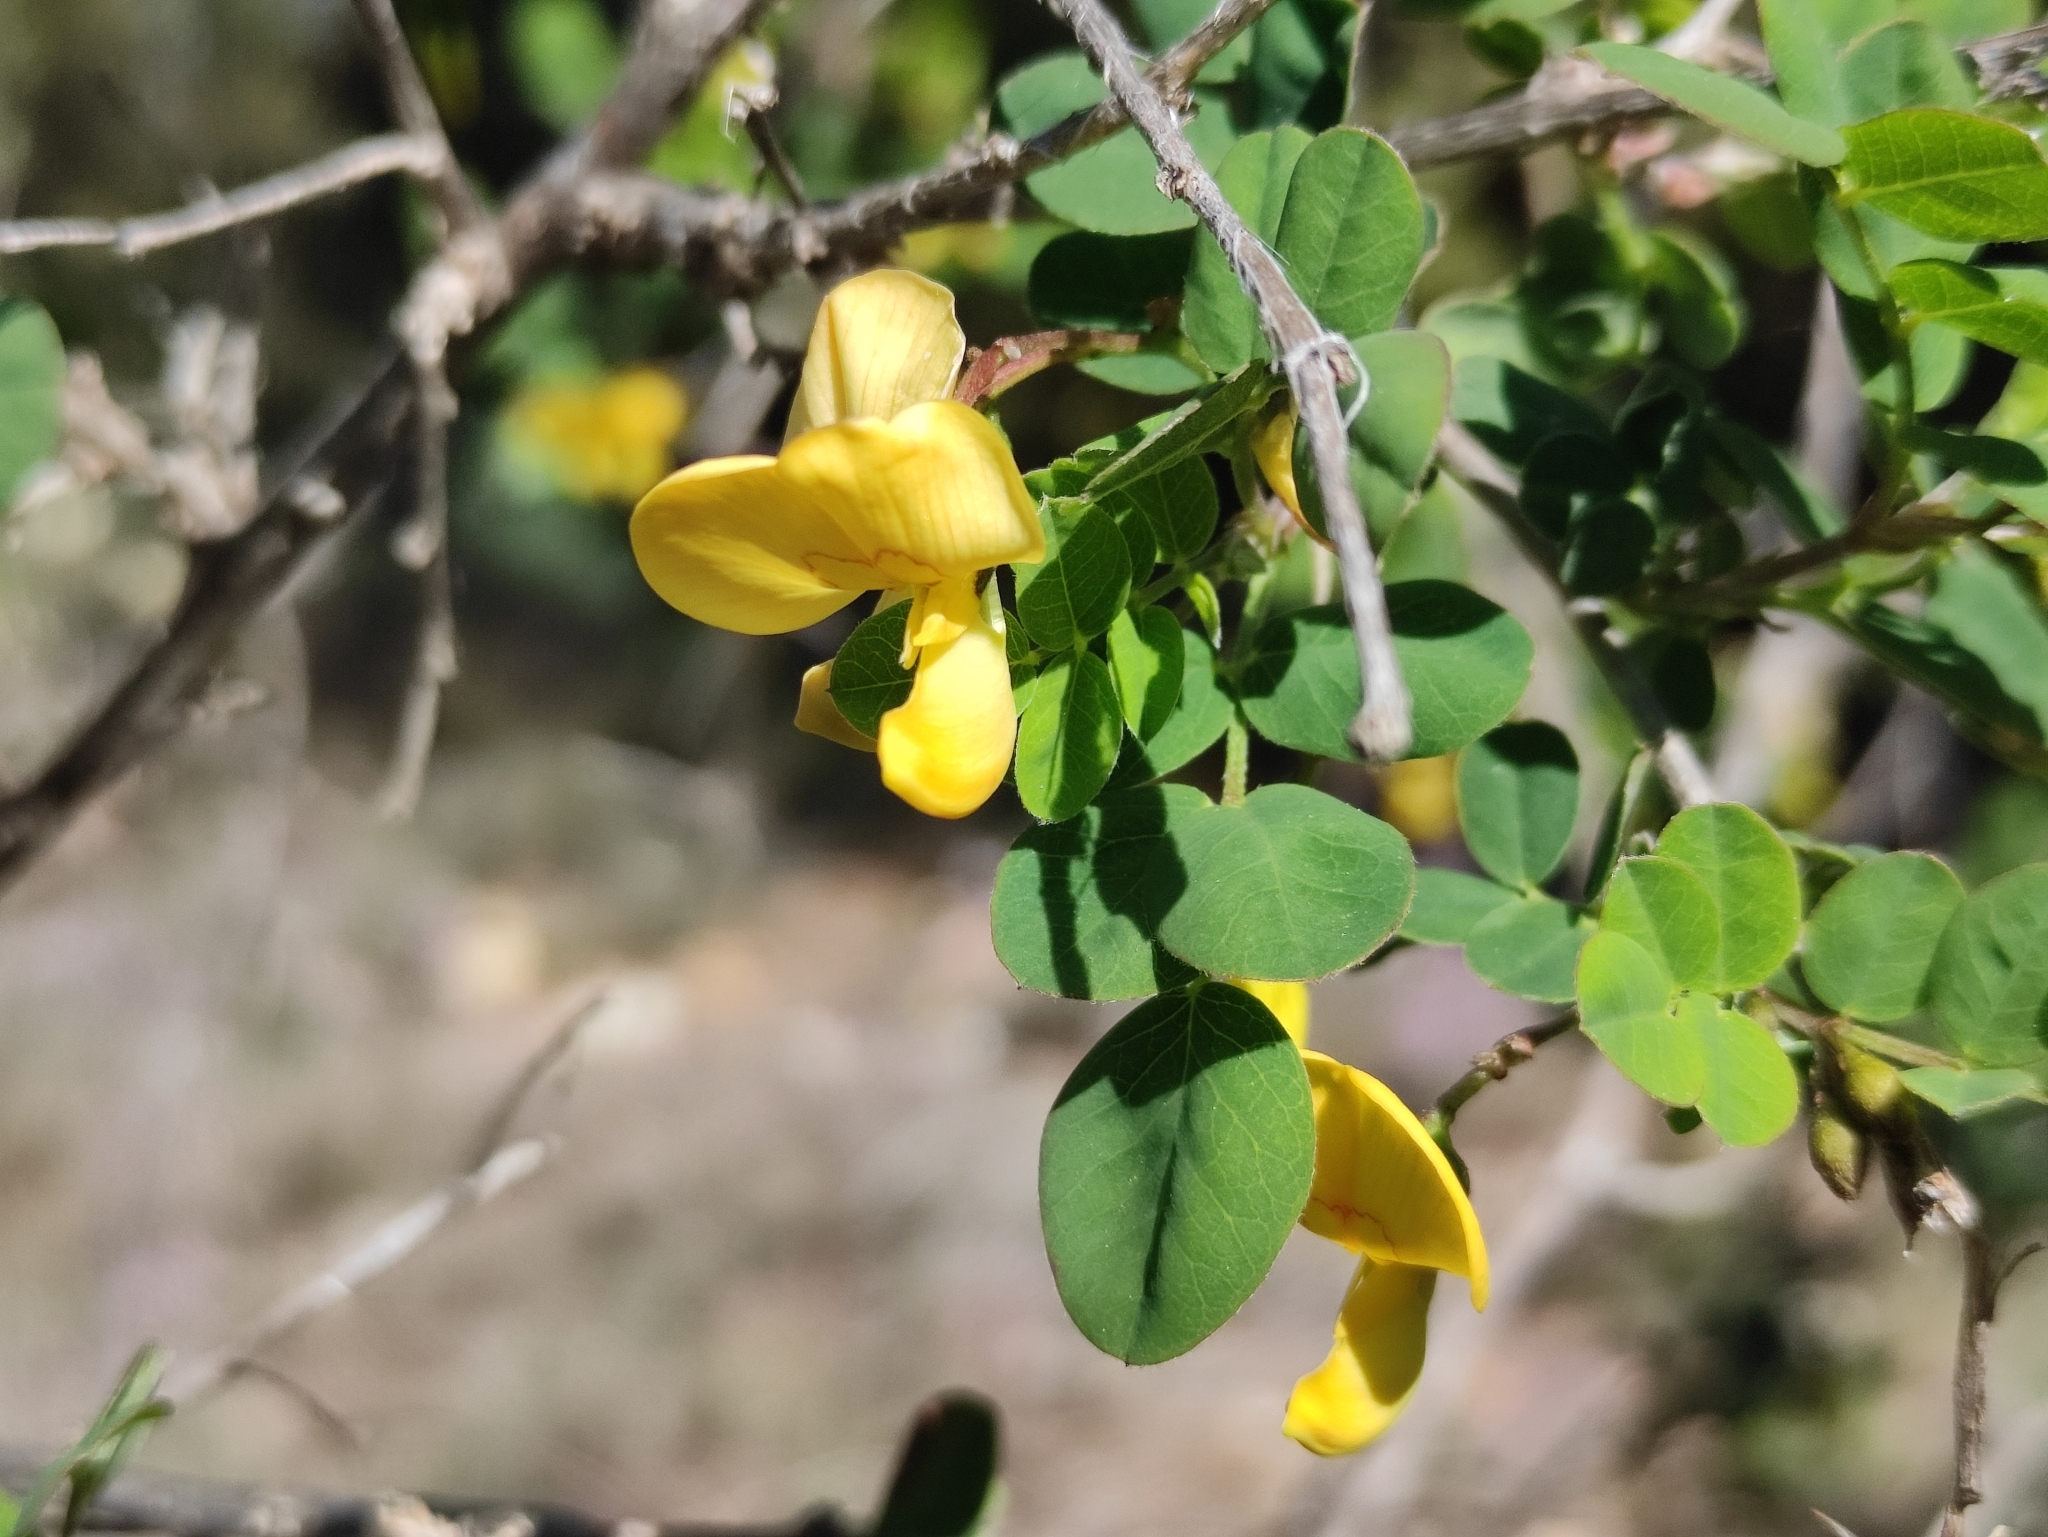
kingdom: Plantae
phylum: Tracheophyta
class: Magnoliopsida
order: Fabales
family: Fabaceae
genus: Colutea
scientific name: Colutea arborescens
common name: Bladder-senna
